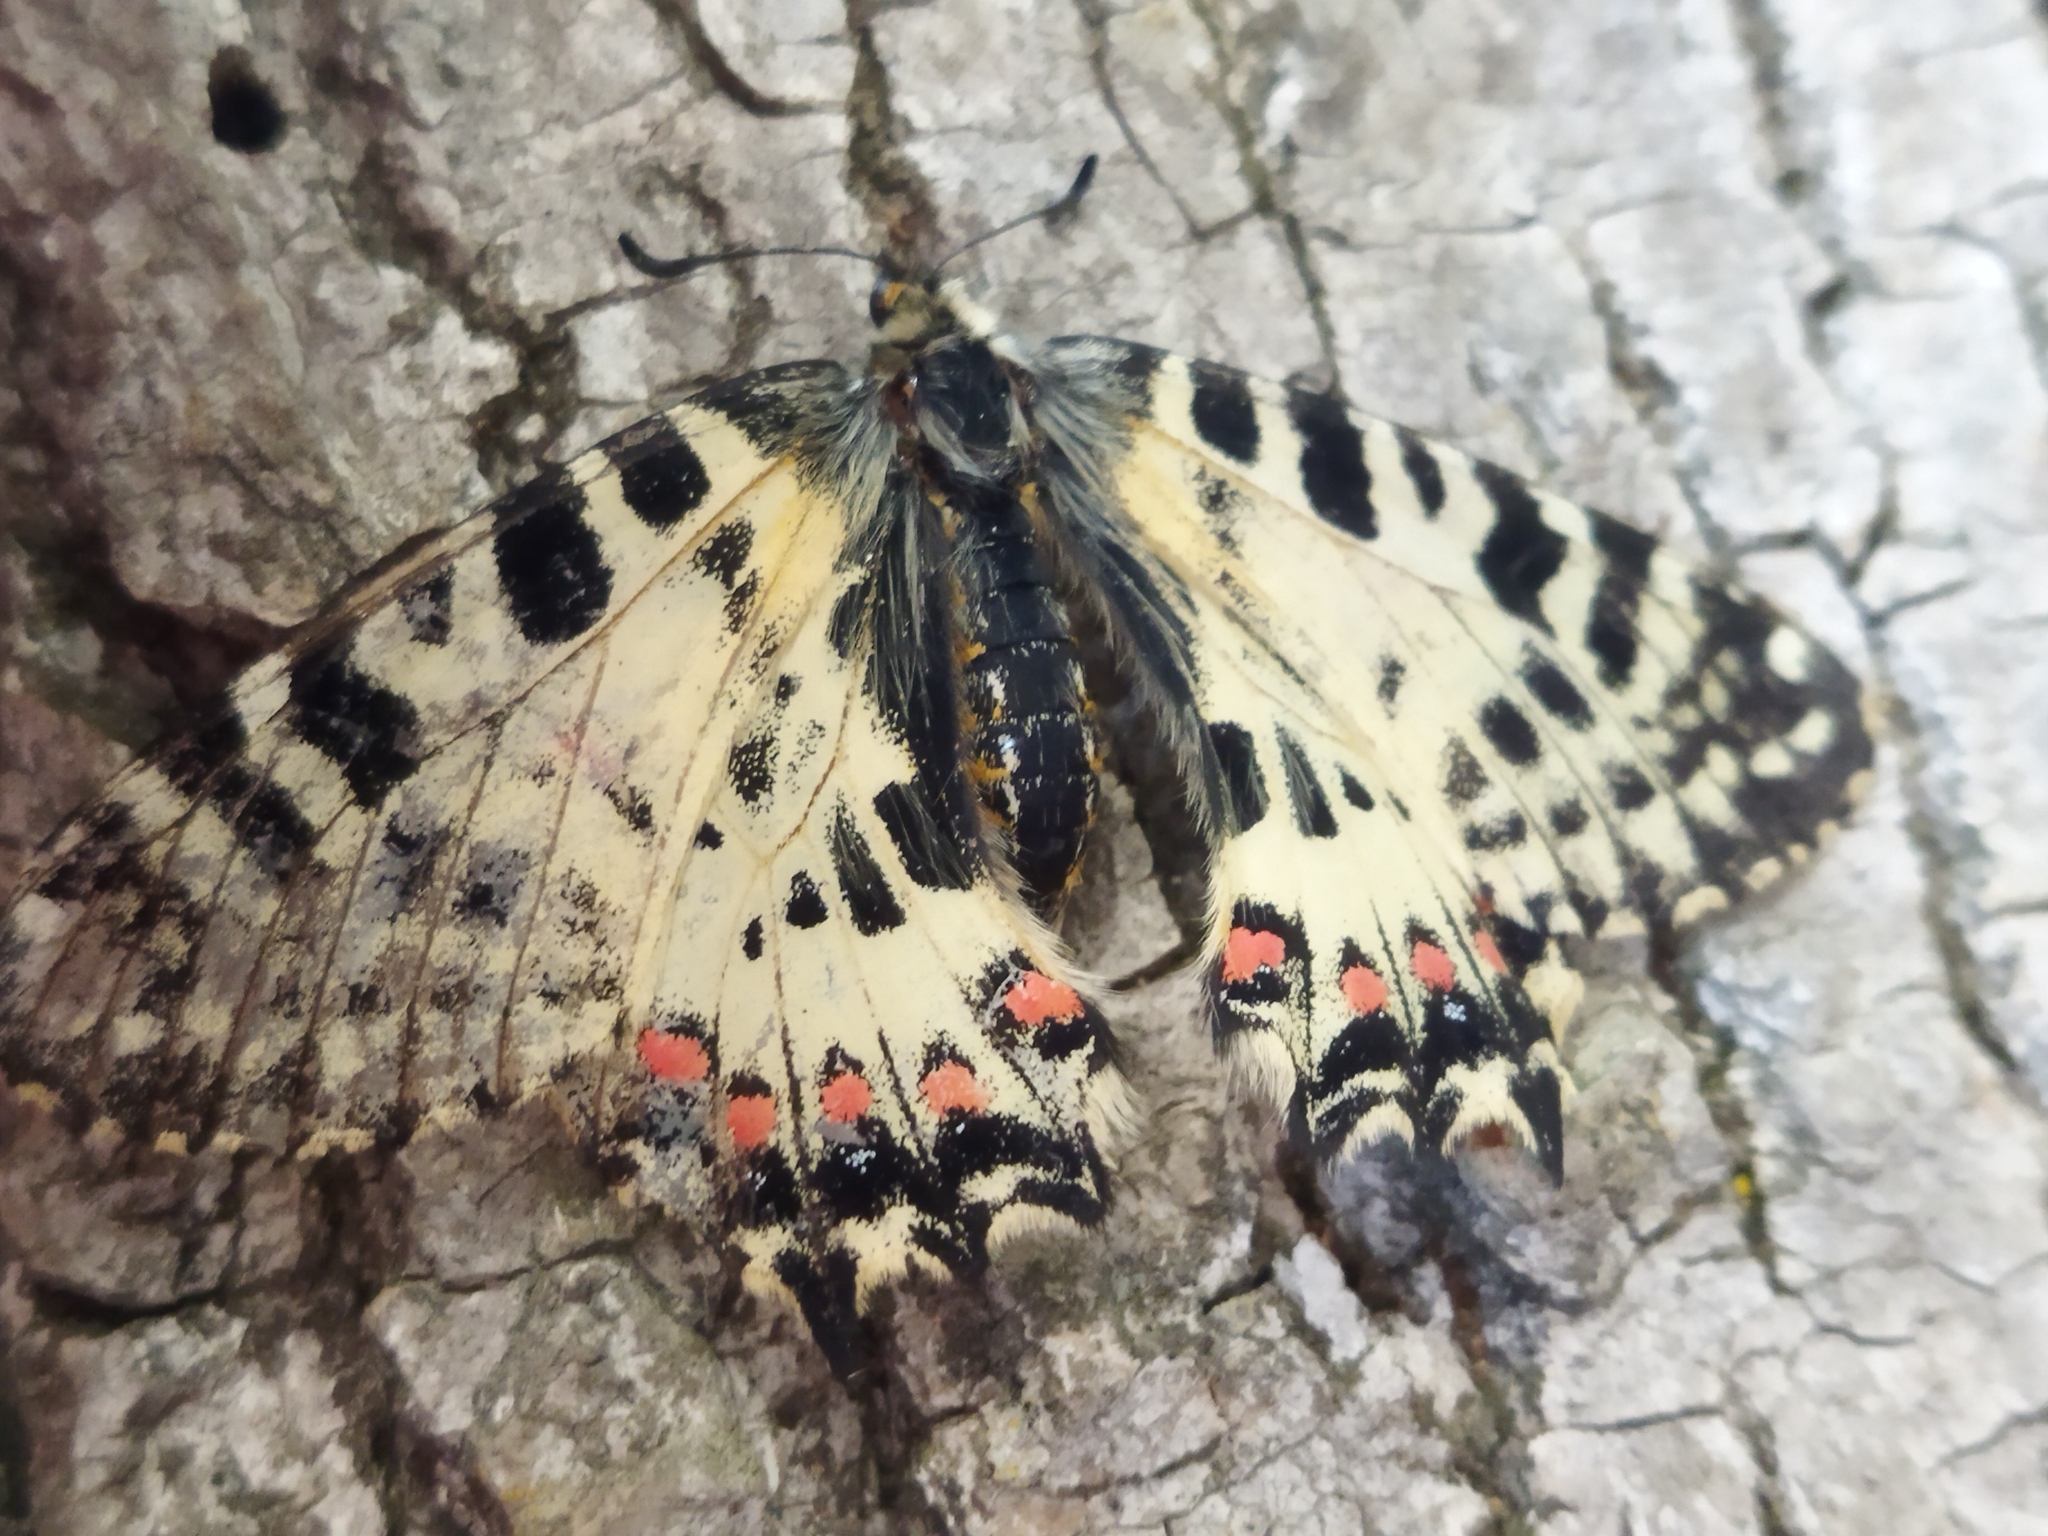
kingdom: Animalia
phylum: Arthropoda
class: Insecta
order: Lepidoptera
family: Papilionidae
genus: Zerynthia
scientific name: Zerynthia cerisy
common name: Eastern festoon
